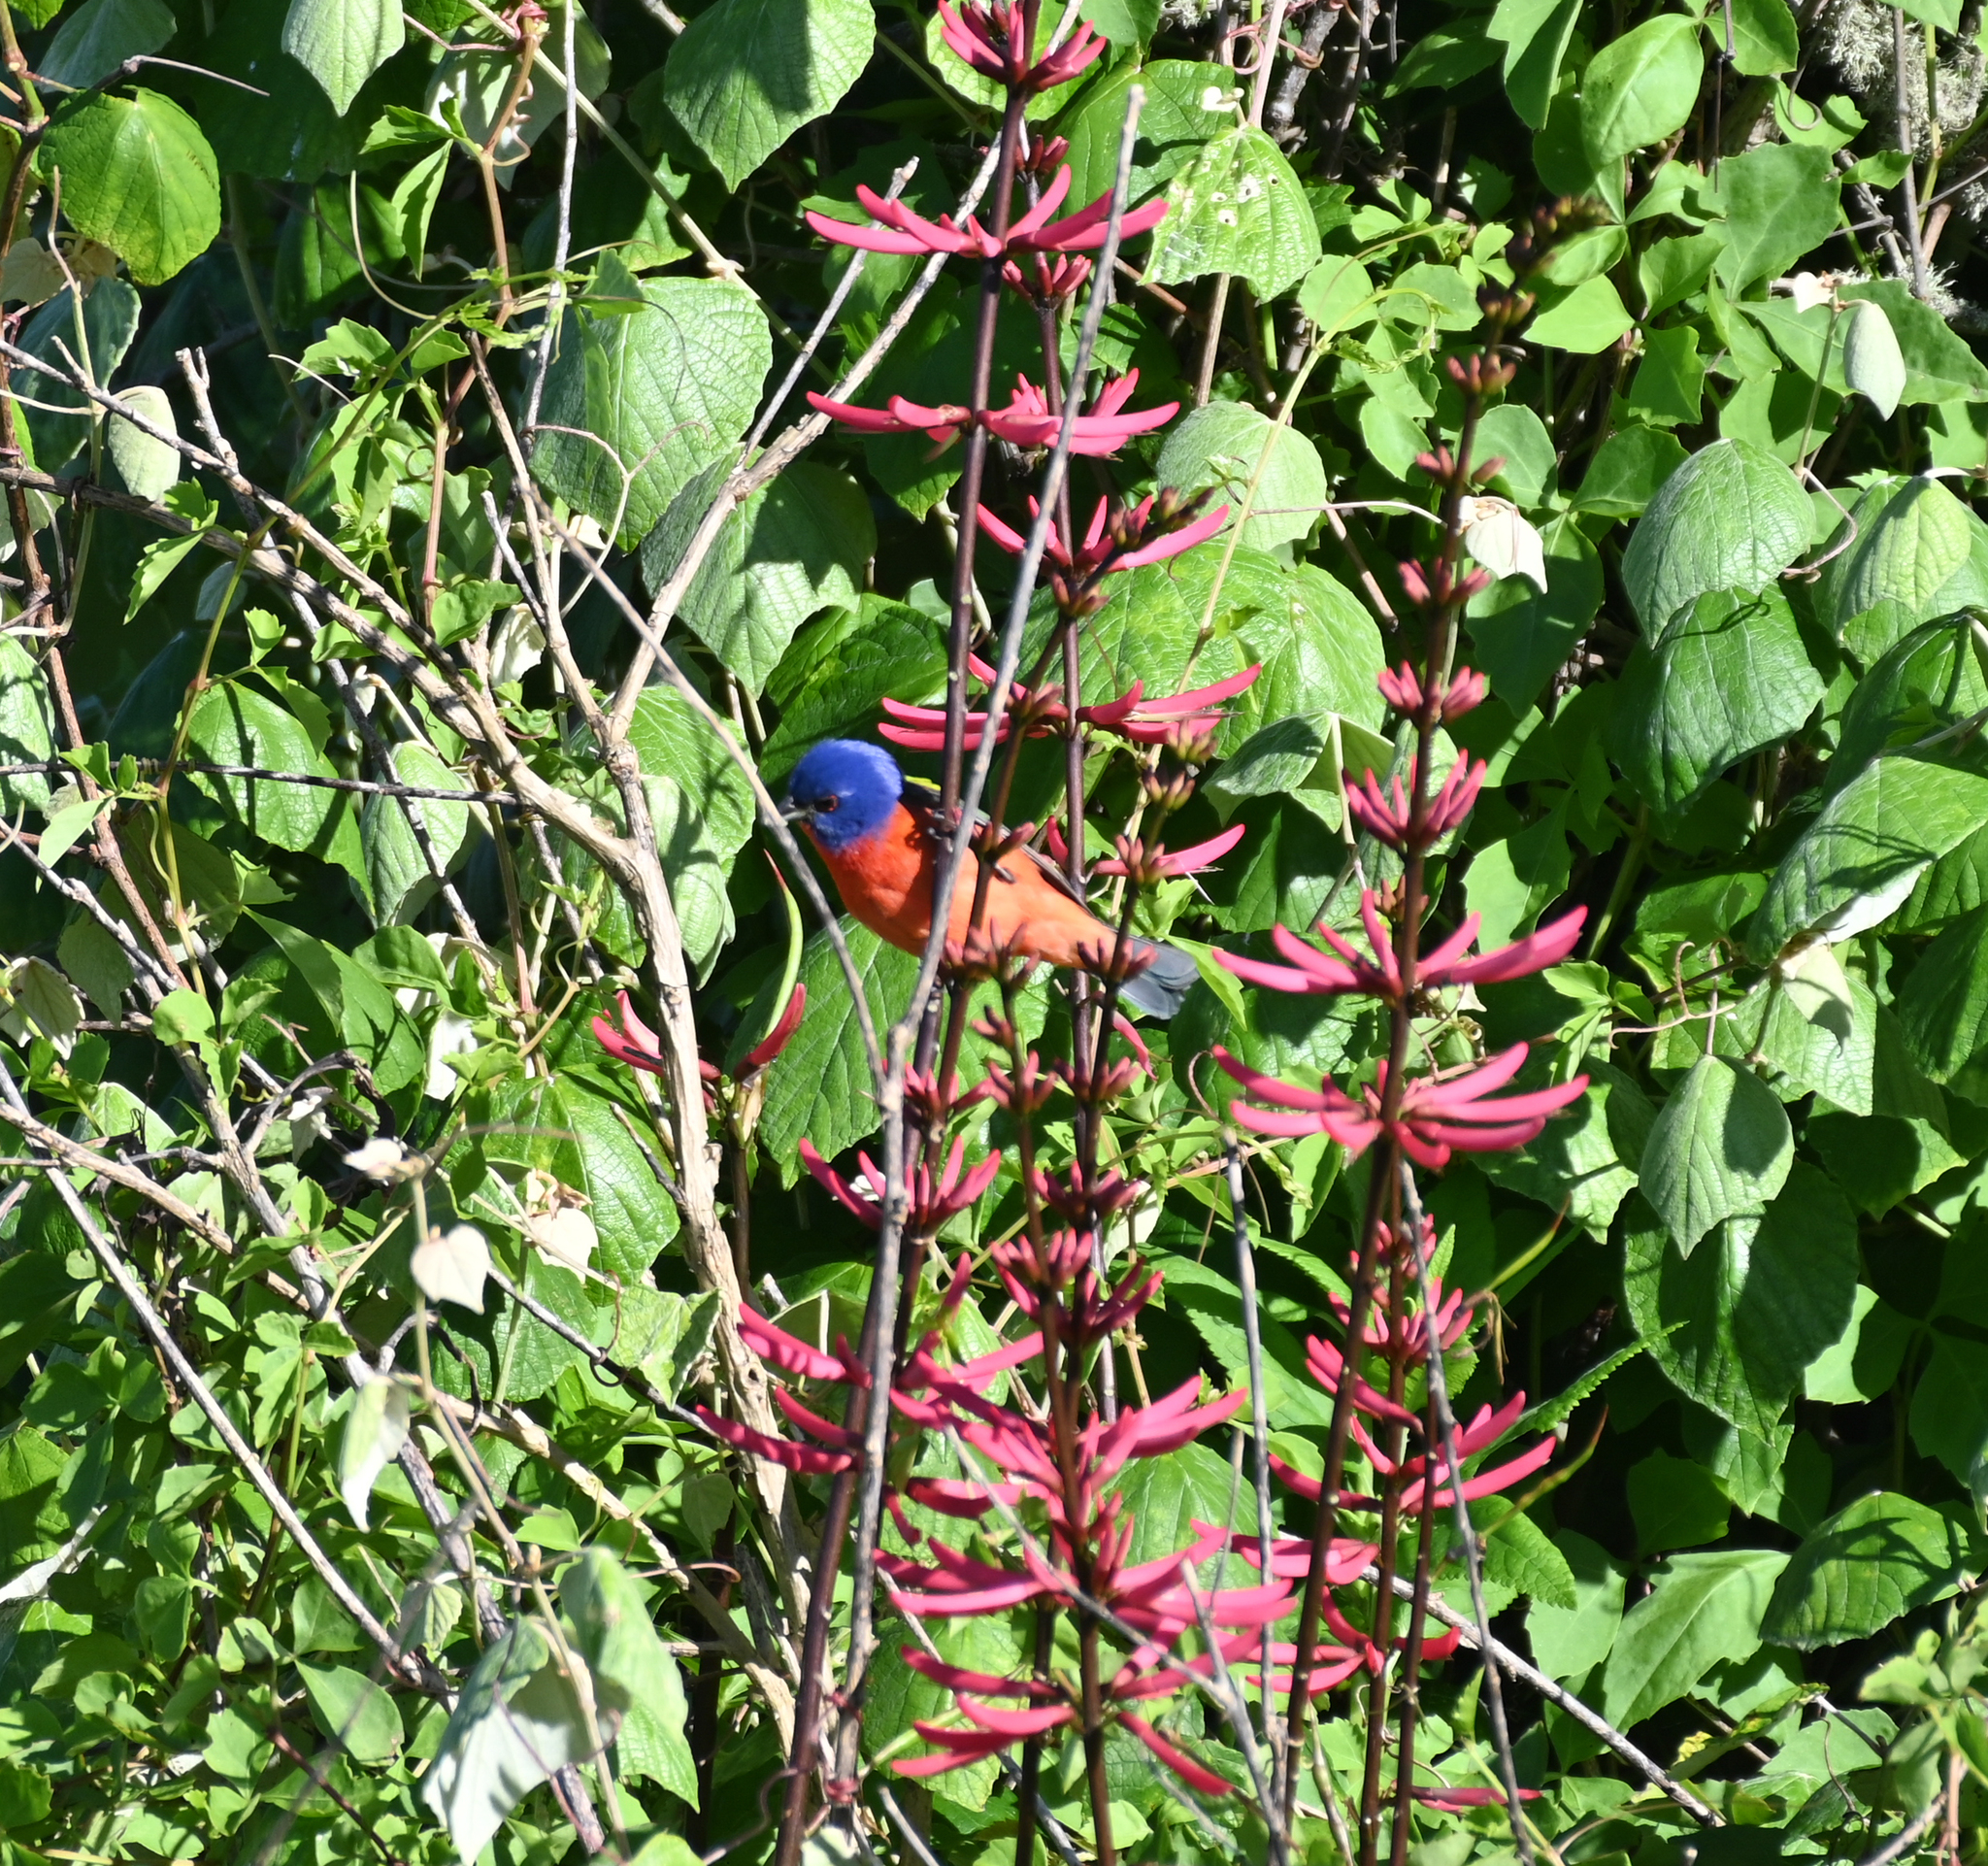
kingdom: Animalia
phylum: Chordata
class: Aves
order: Passeriformes
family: Cardinalidae
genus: Passerina
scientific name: Passerina ciris
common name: Painted bunting
